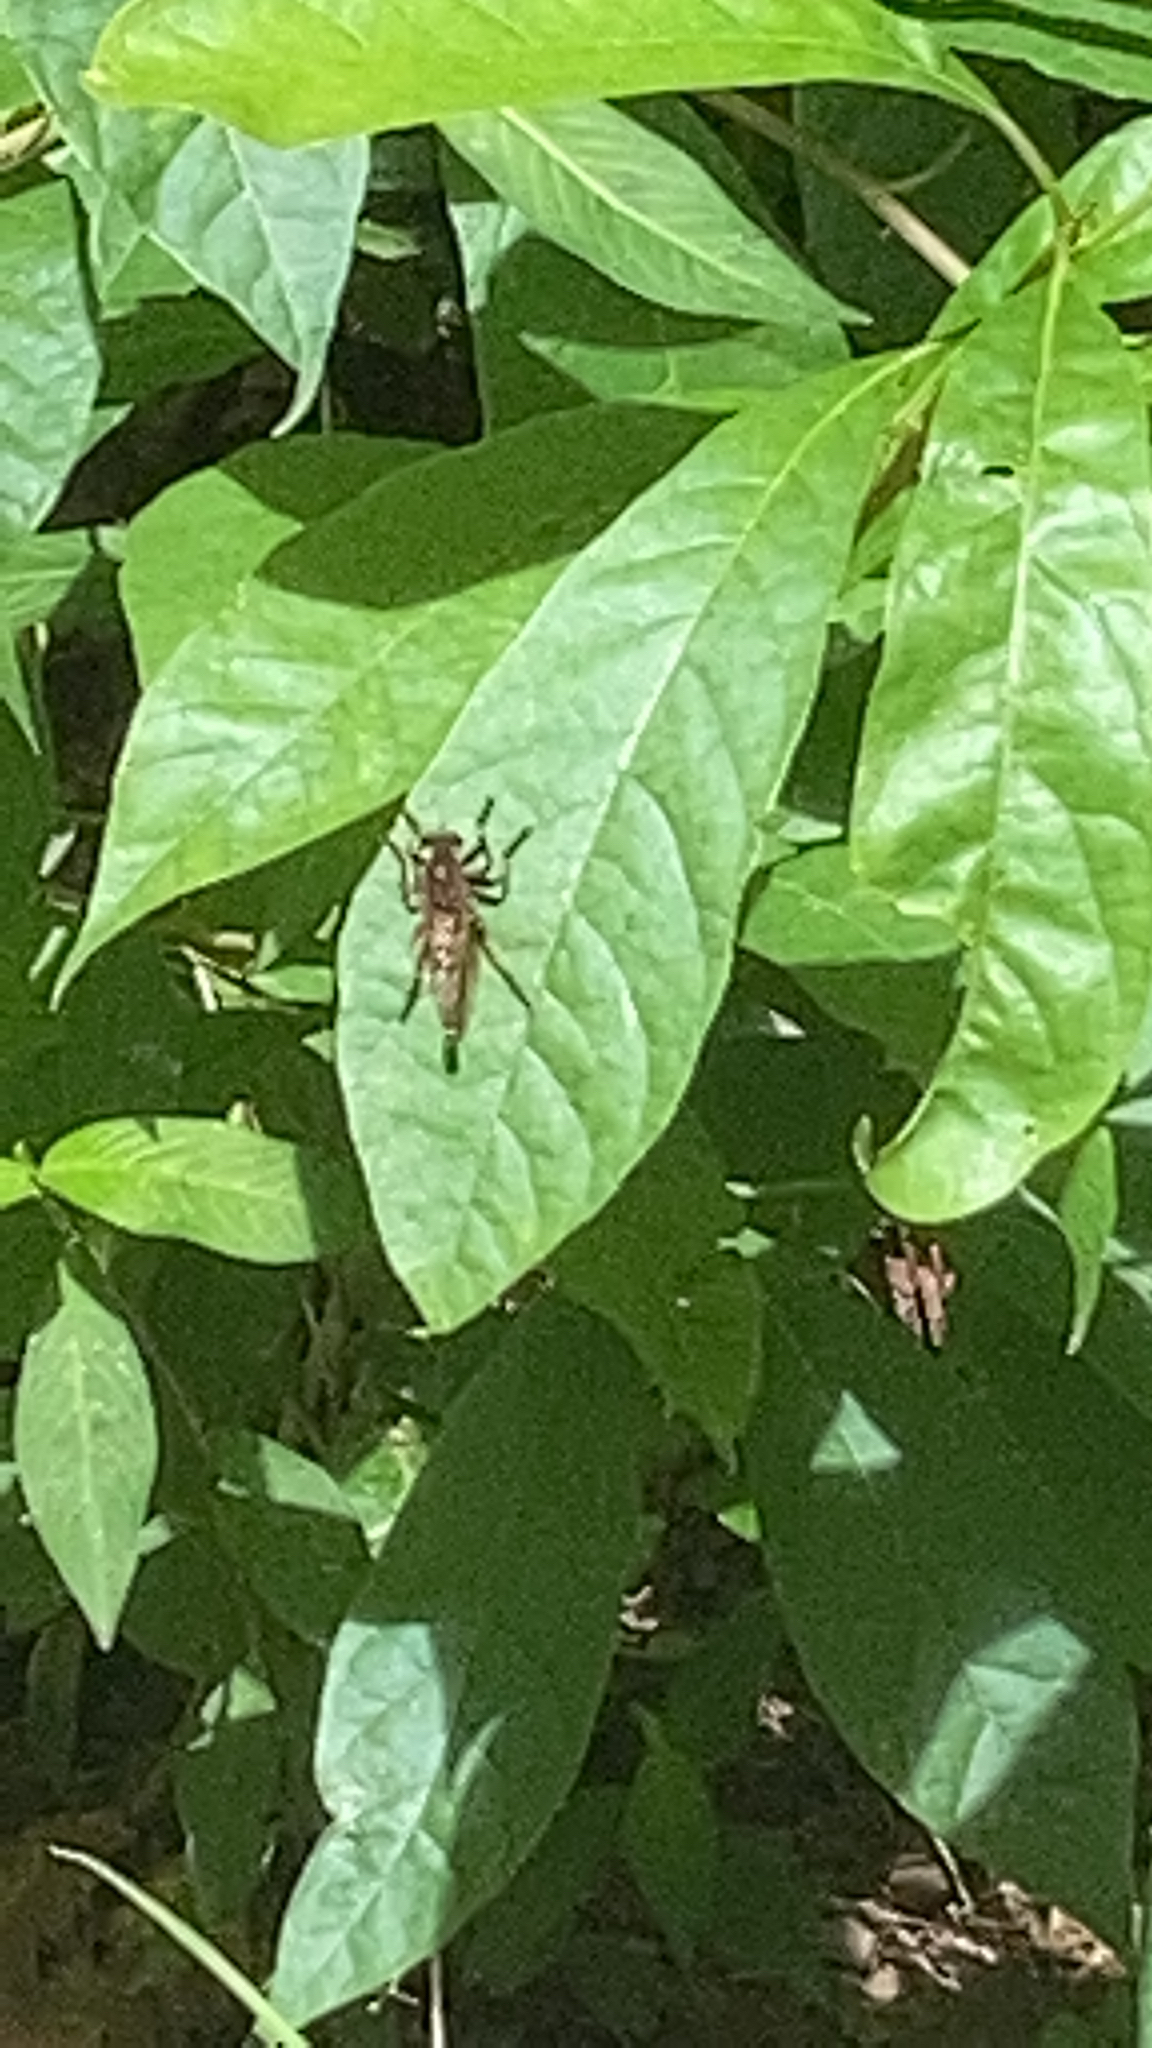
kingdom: Animalia
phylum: Arthropoda
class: Insecta
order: Diptera
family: Asilidae
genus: Promachus
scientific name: Promachus rufipes
